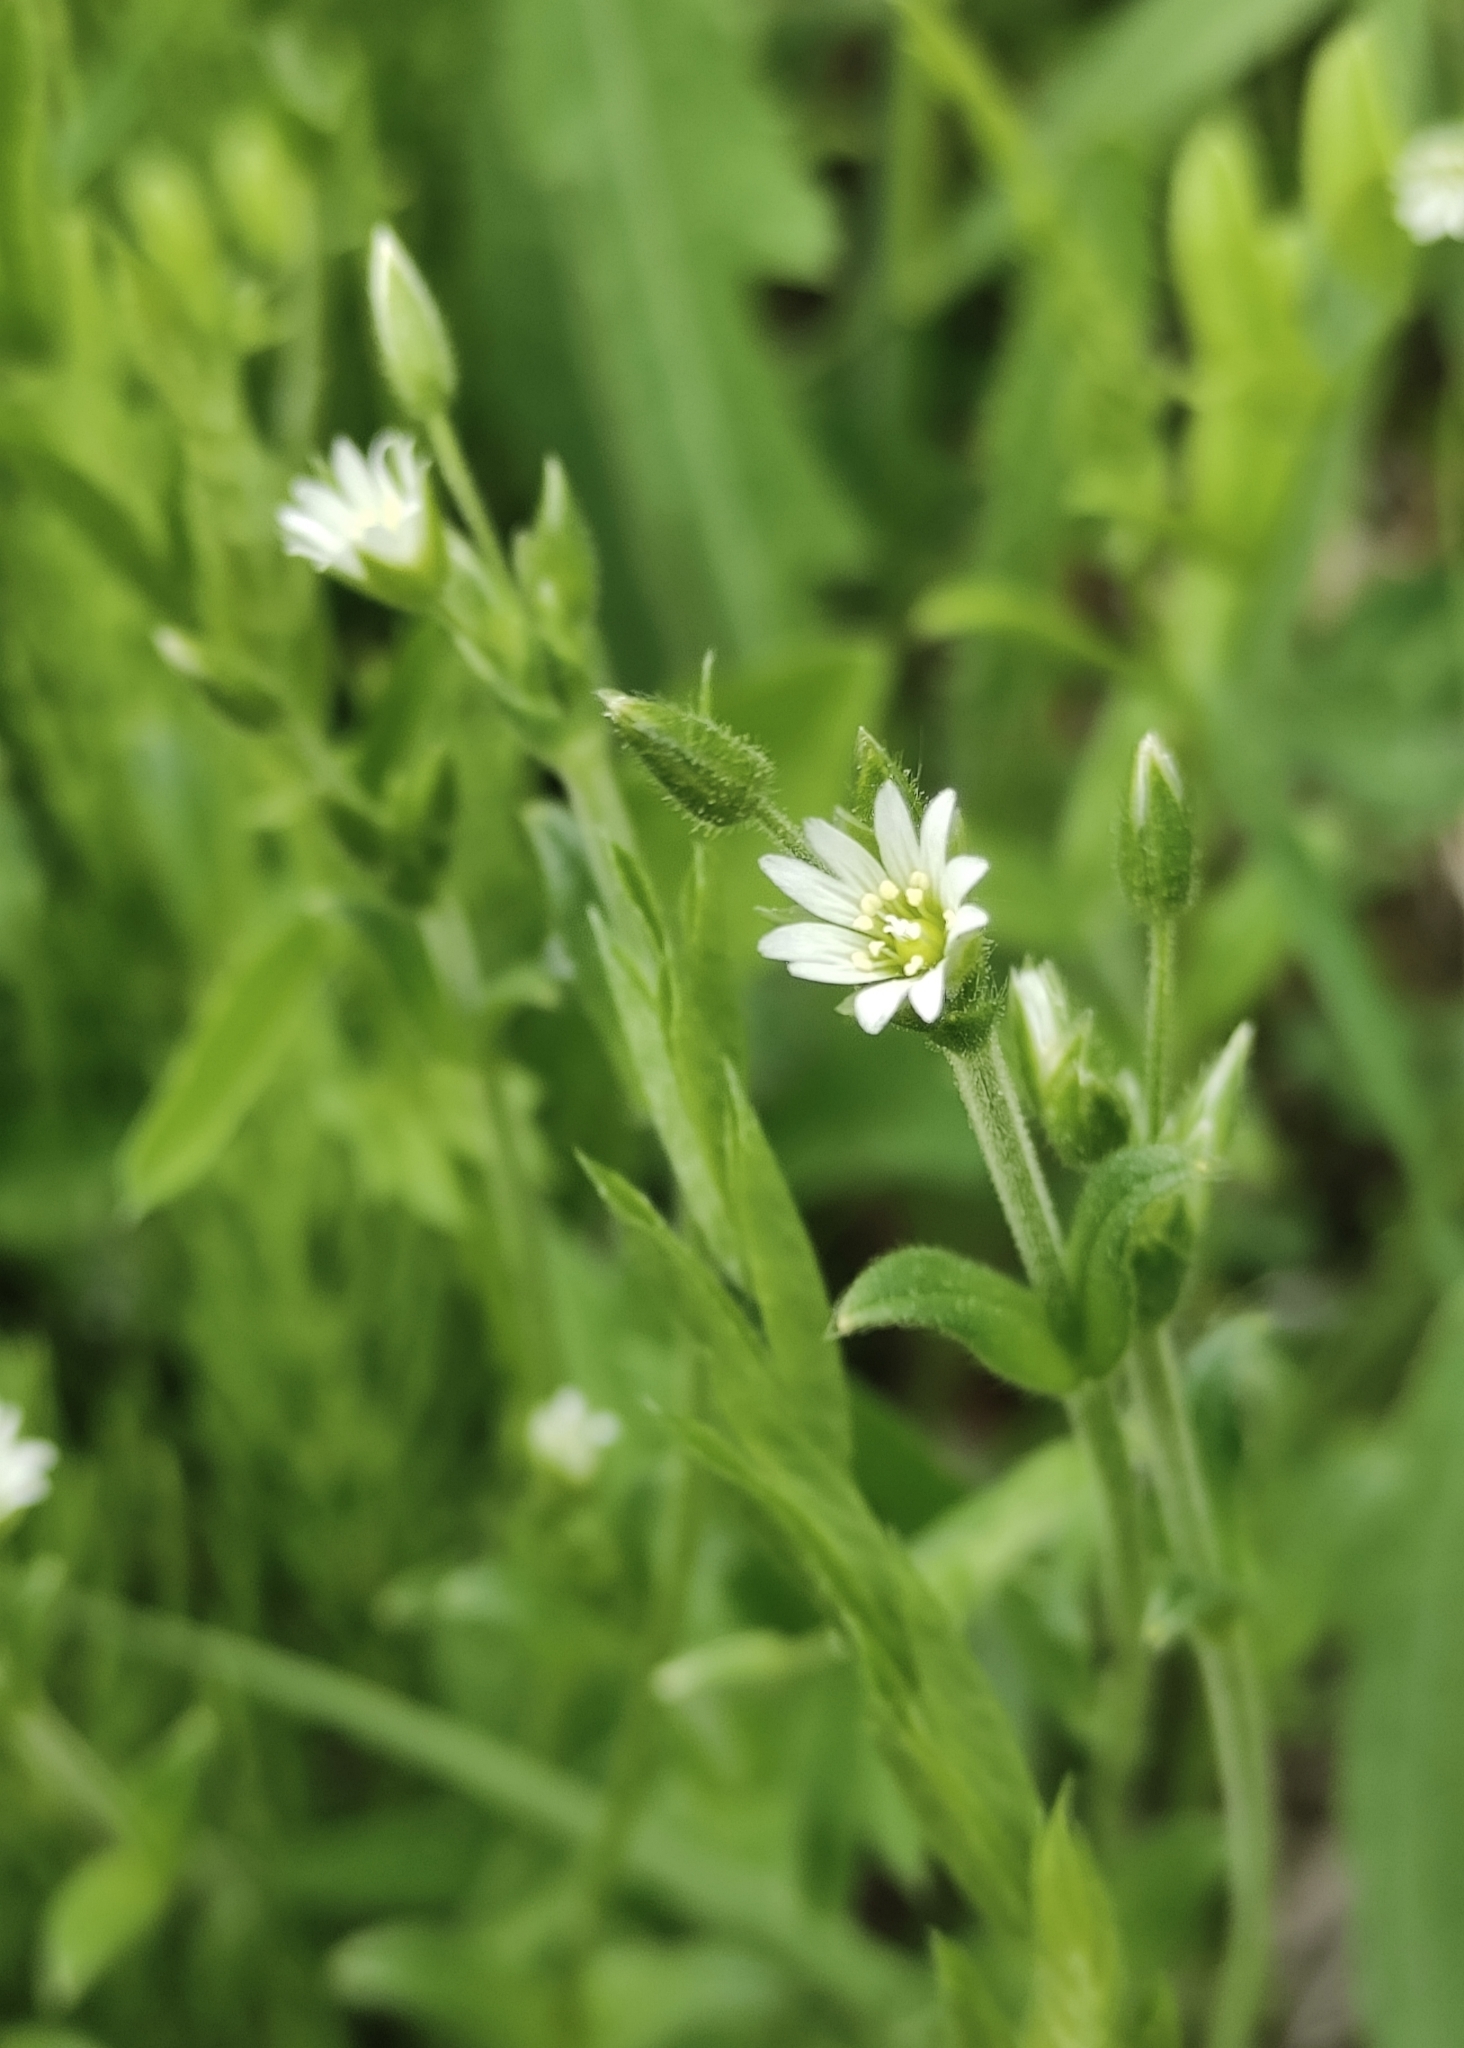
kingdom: Plantae
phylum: Tracheophyta
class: Magnoliopsida
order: Caryophyllales
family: Caryophyllaceae
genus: Cerastium
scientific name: Cerastium holosteoides
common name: Big chickweed
